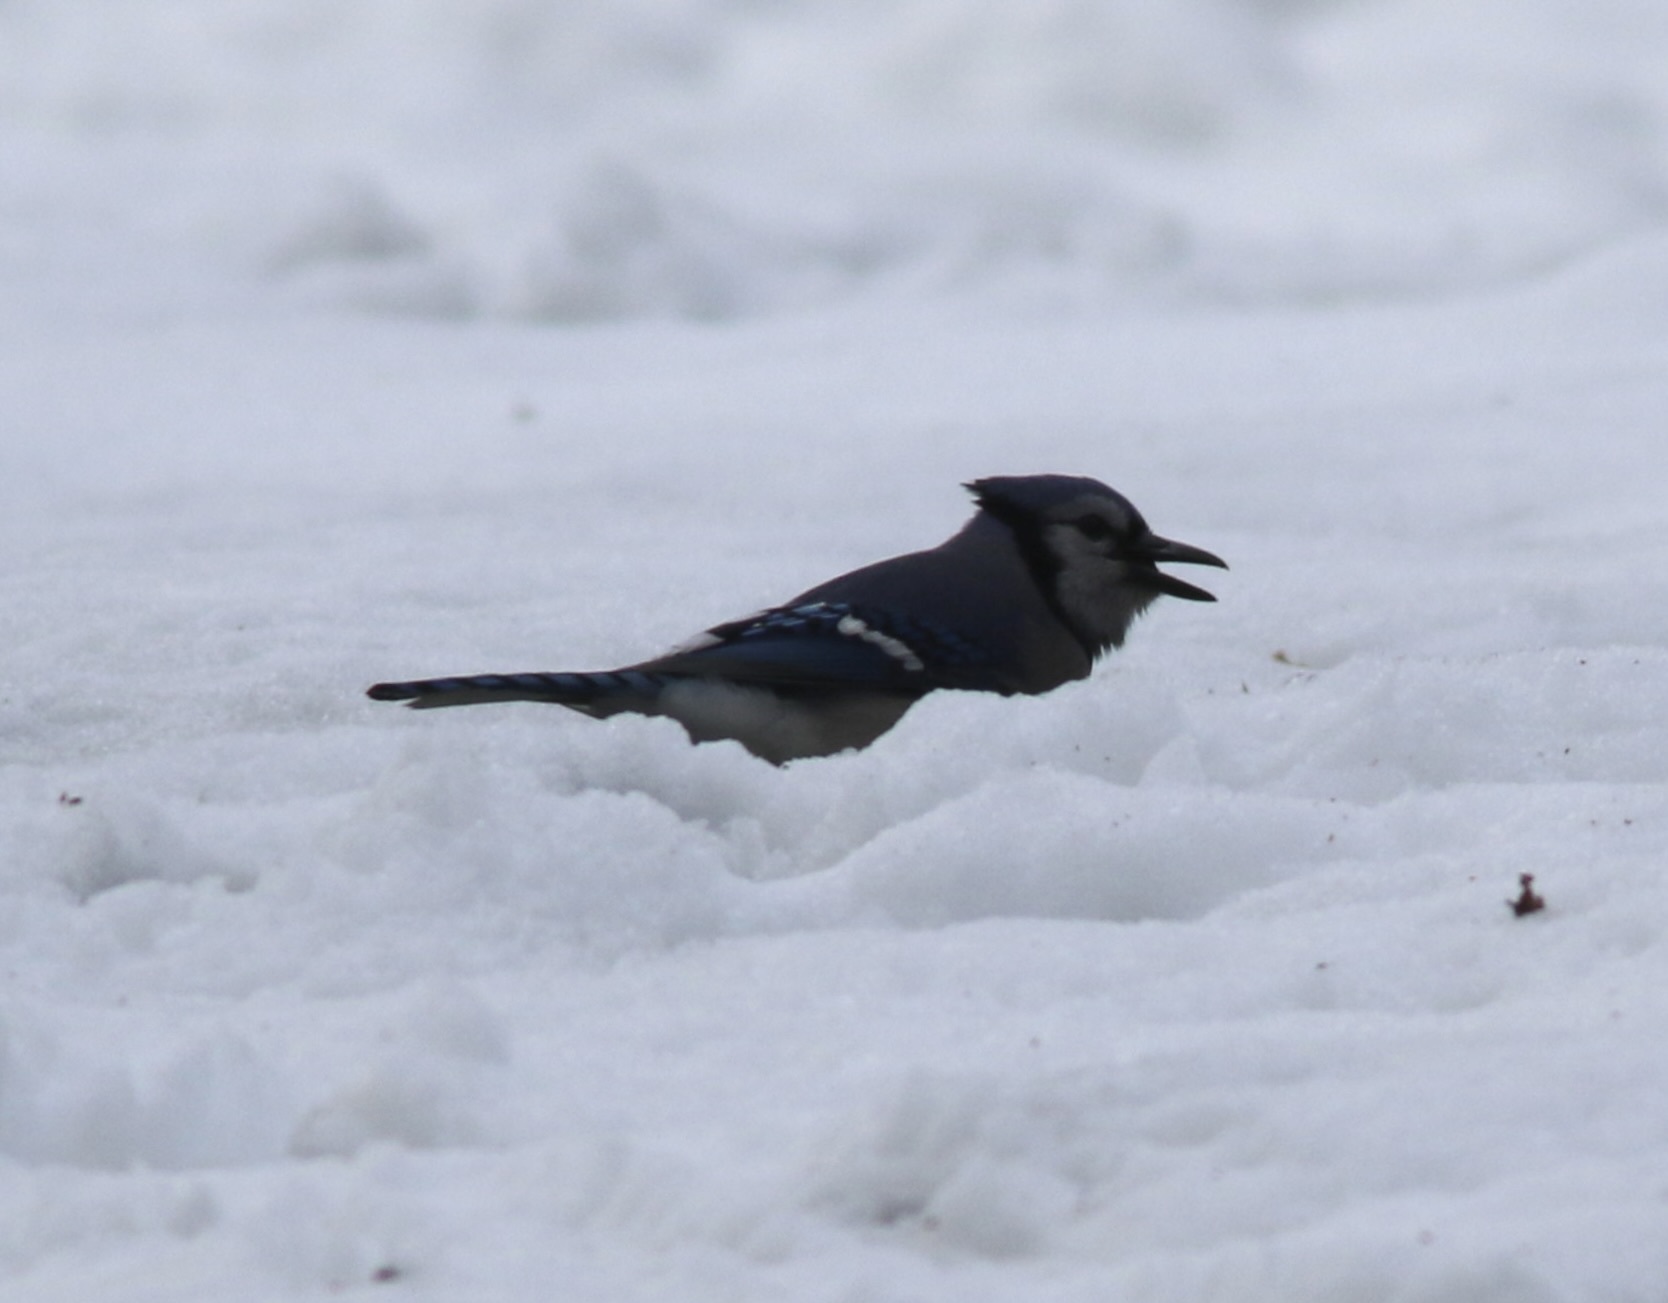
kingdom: Animalia
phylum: Chordata
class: Aves
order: Passeriformes
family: Corvidae
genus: Cyanocitta
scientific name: Cyanocitta cristata
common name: Blue jay
